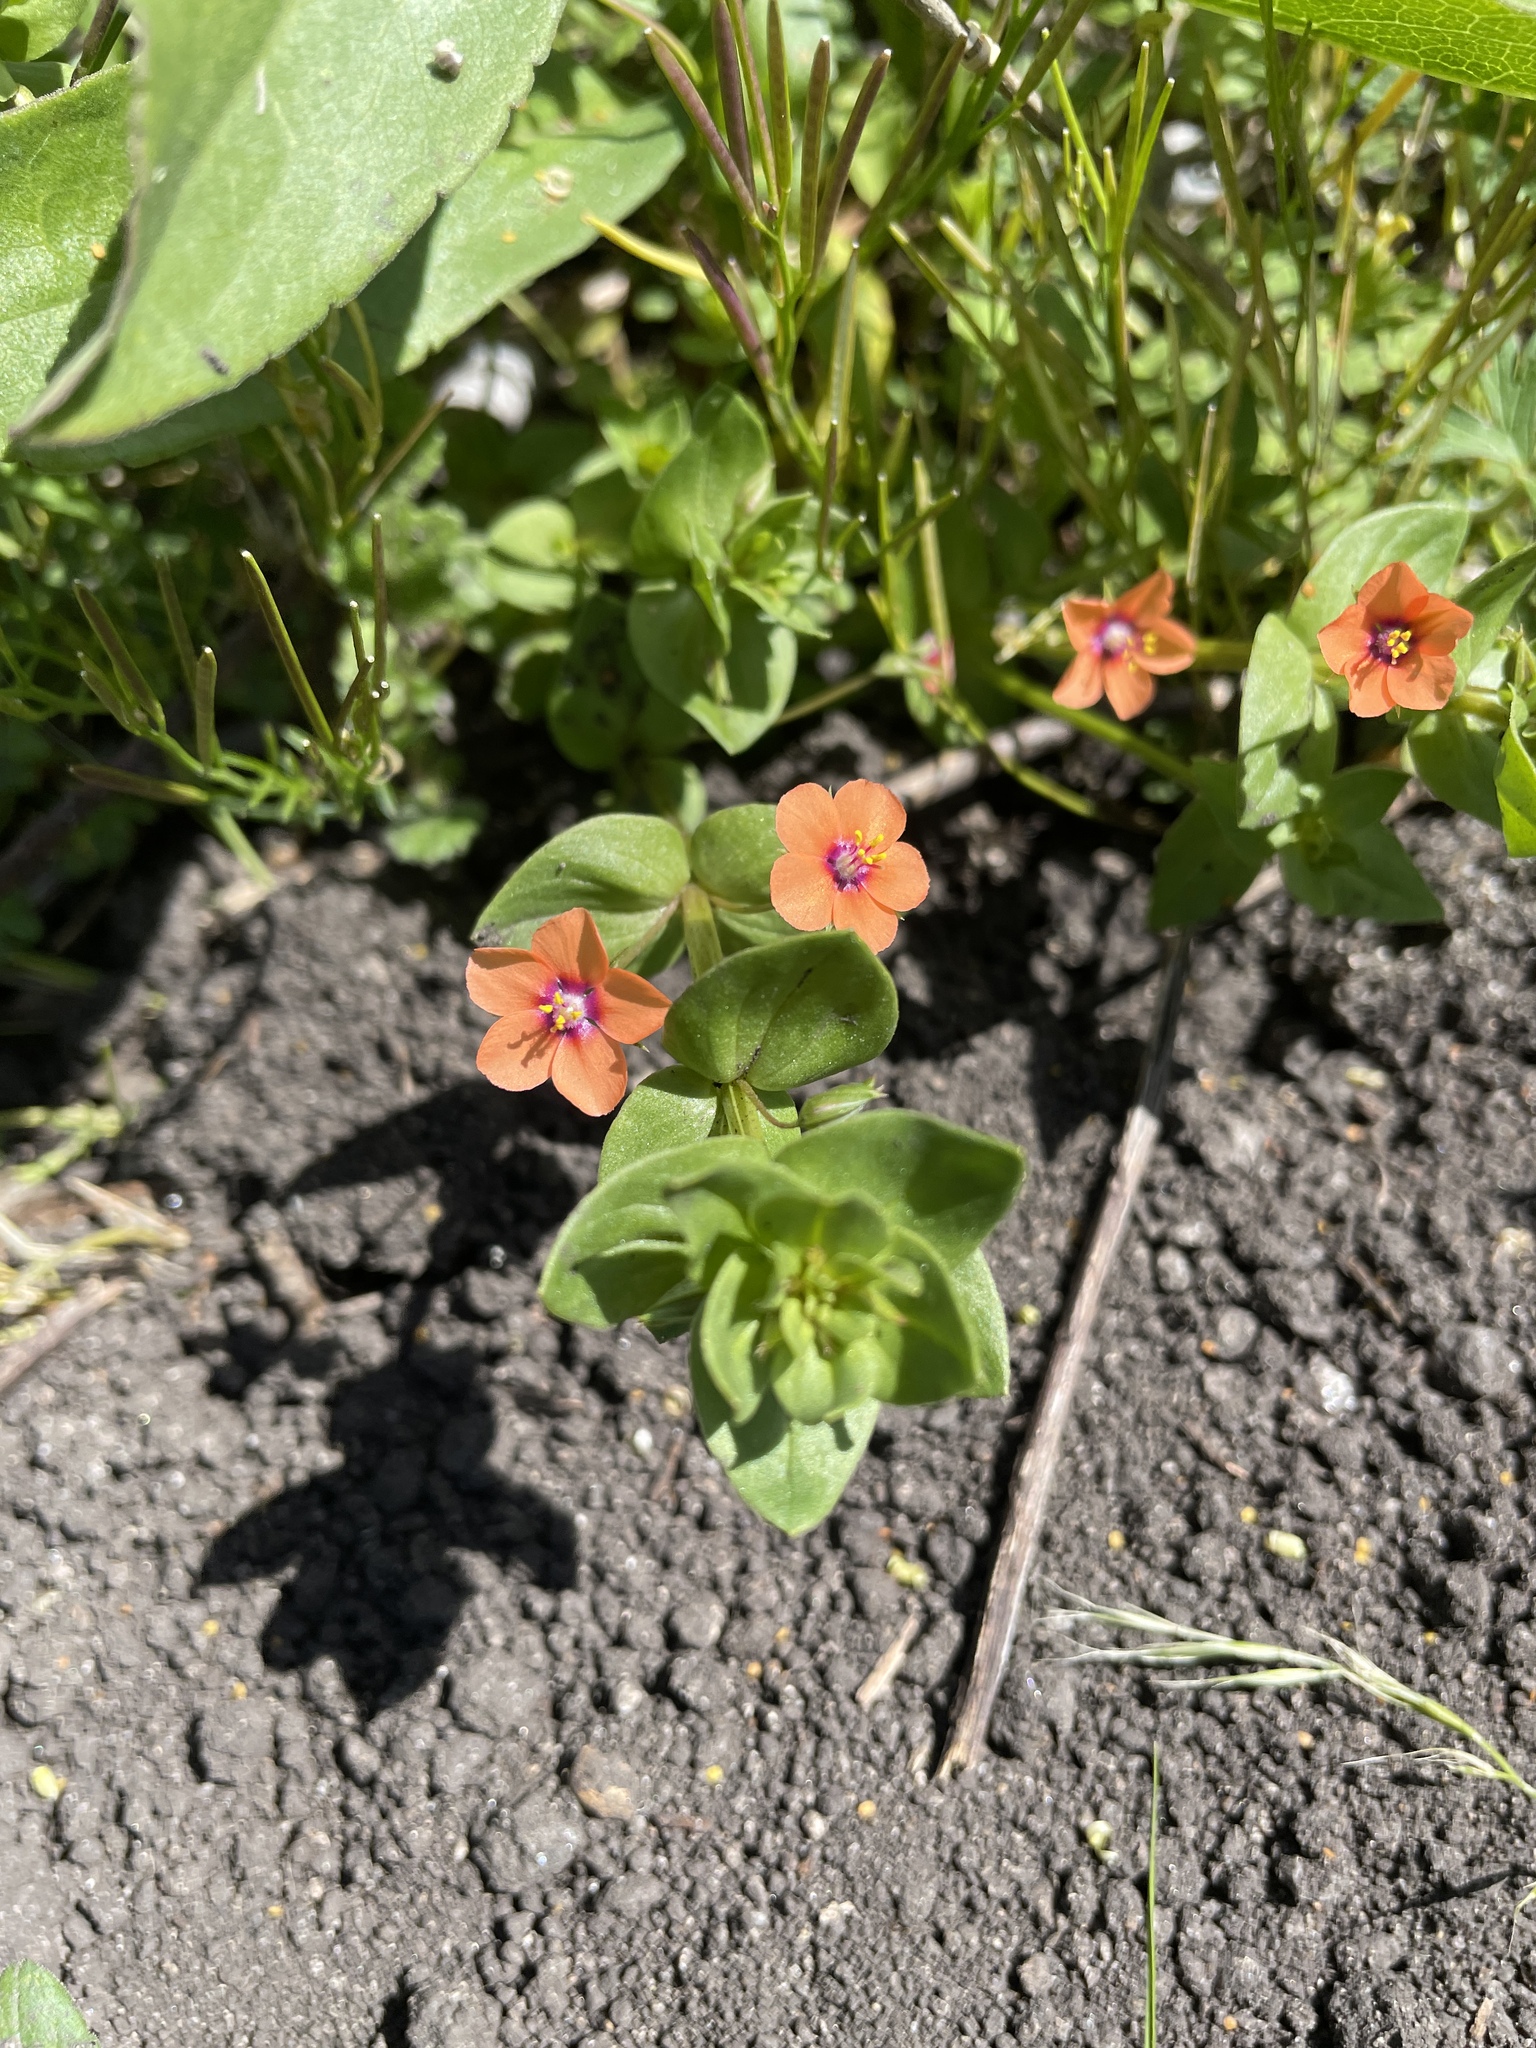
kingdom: Plantae
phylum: Tracheophyta
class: Magnoliopsida
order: Ericales
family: Primulaceae
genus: Lysimachia
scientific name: Lysimachia arvensis
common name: Scarlet pimpernel
